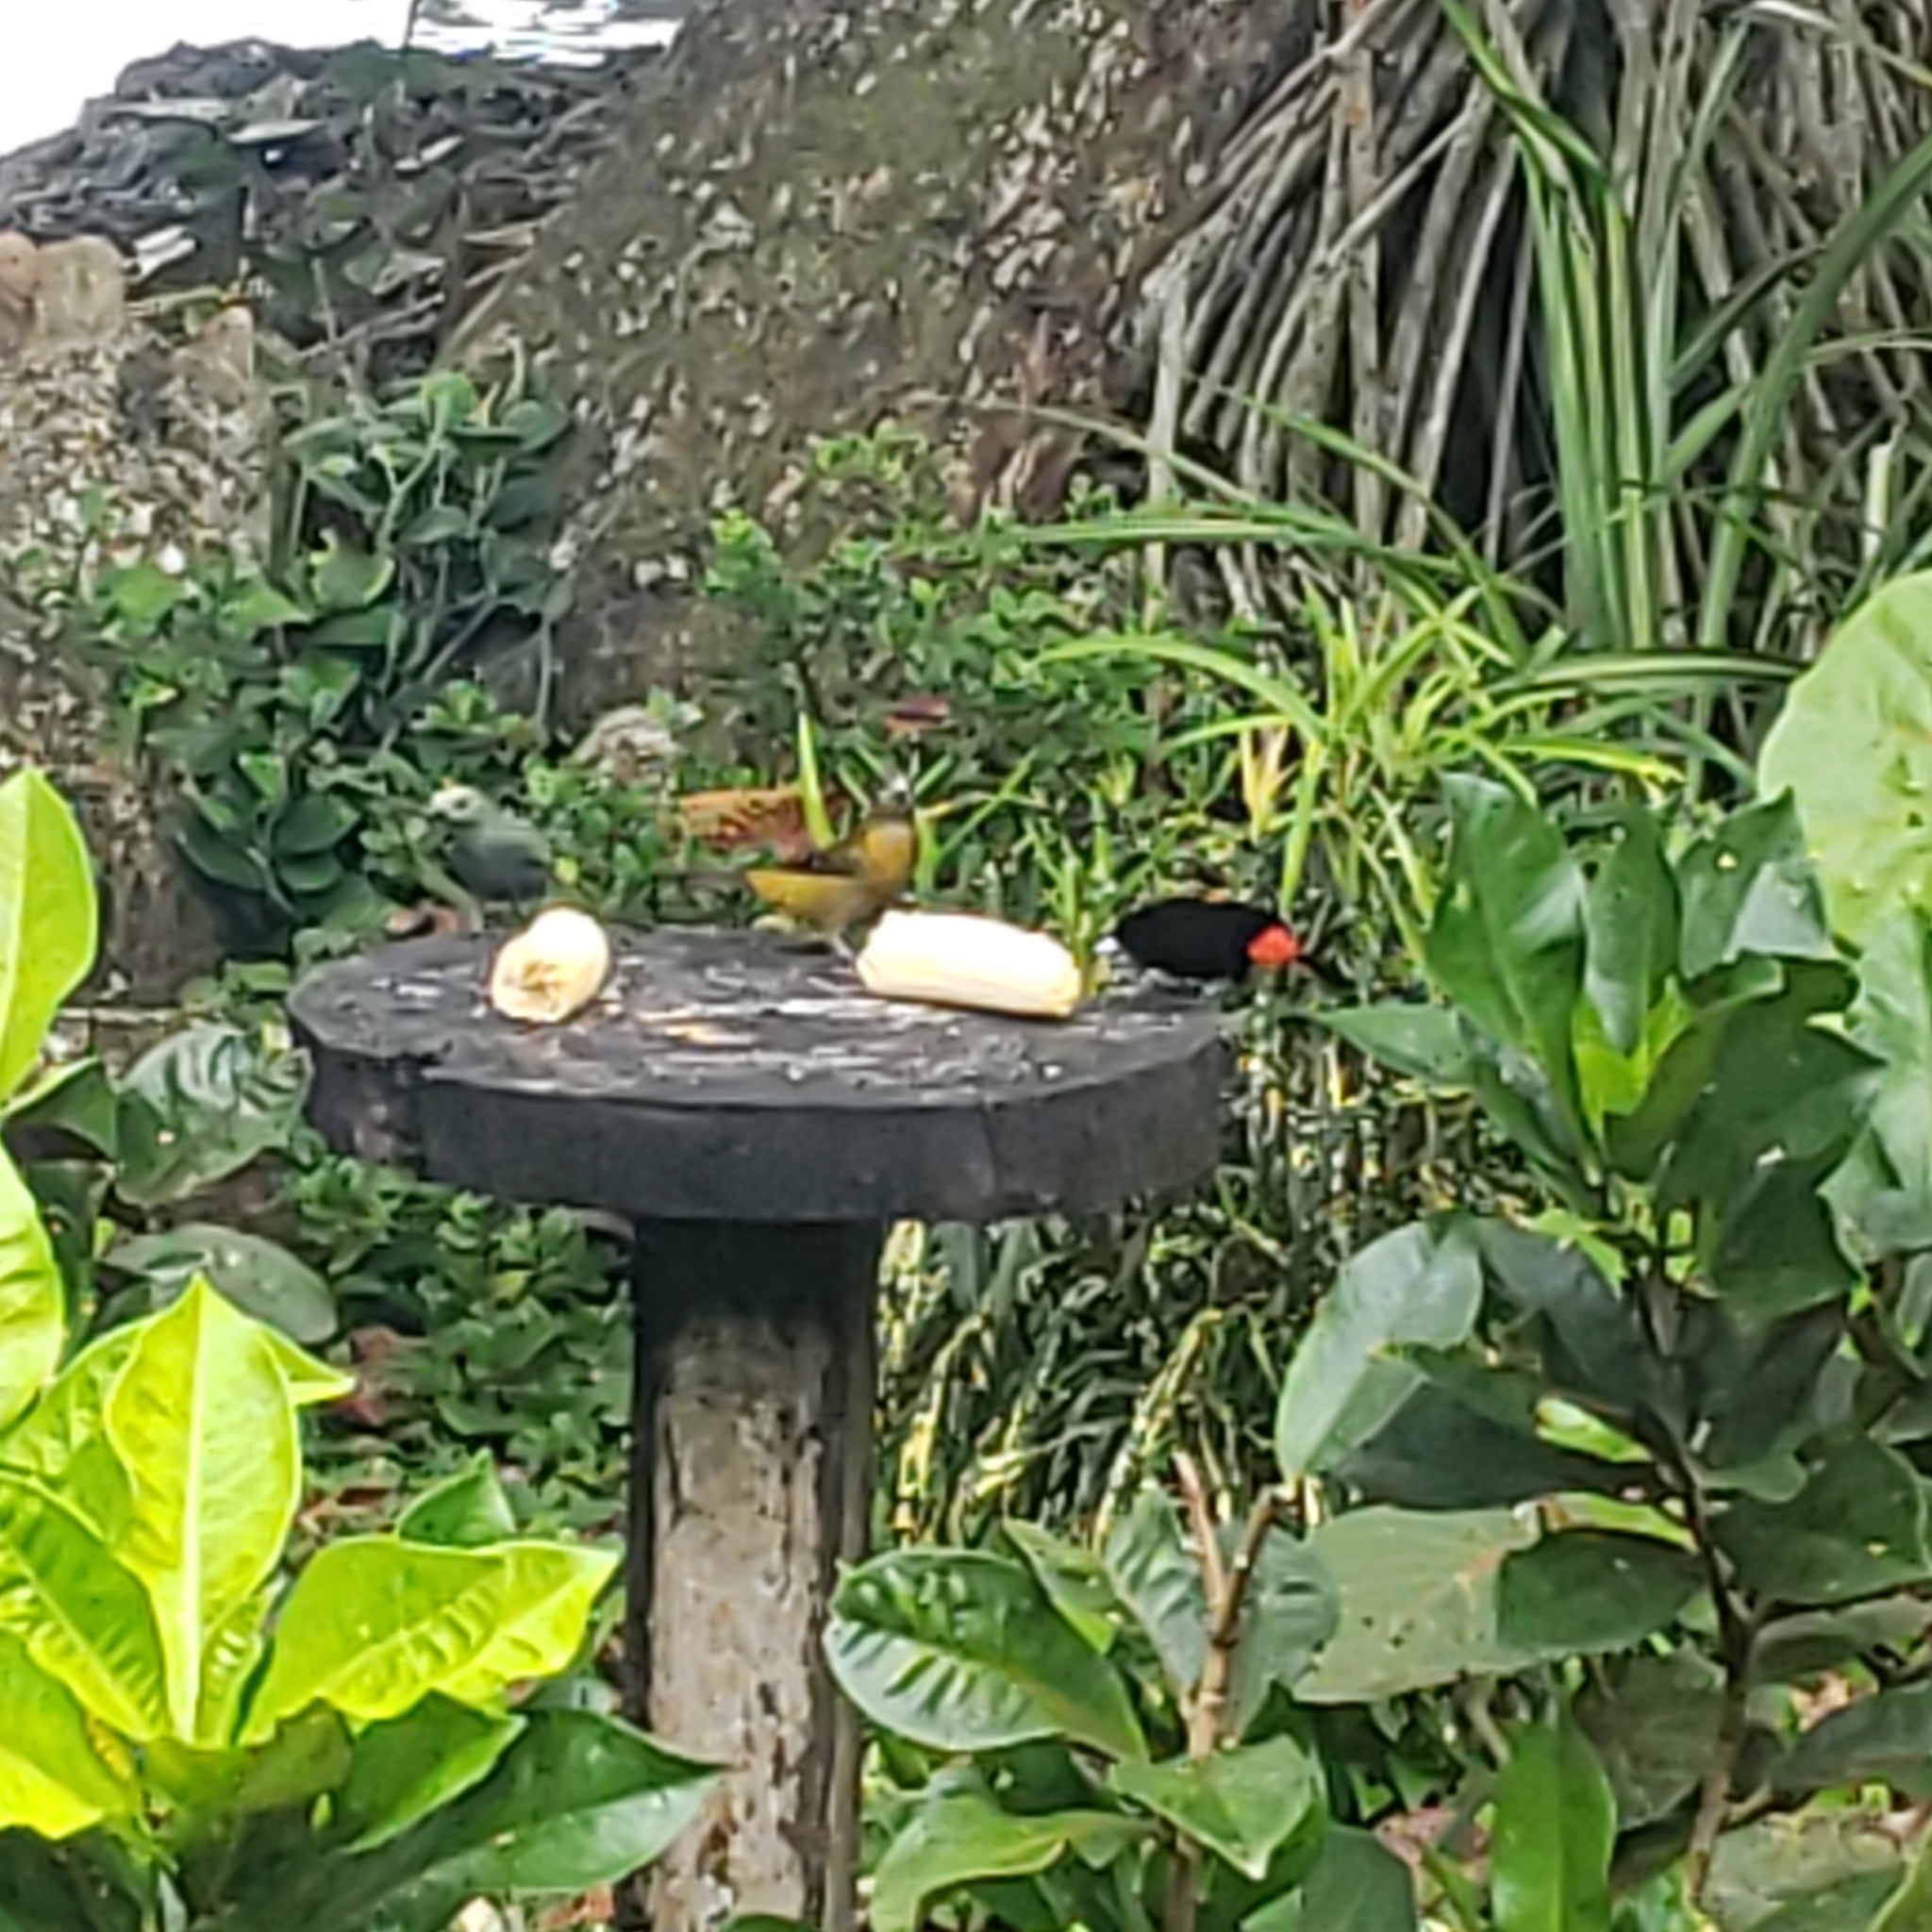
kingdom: Animalia
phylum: Chordata
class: Aves
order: Passeriformes
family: Thraupidae
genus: Ramphocelus
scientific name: Ramphocelus passerinii
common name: Passerini's tanager
